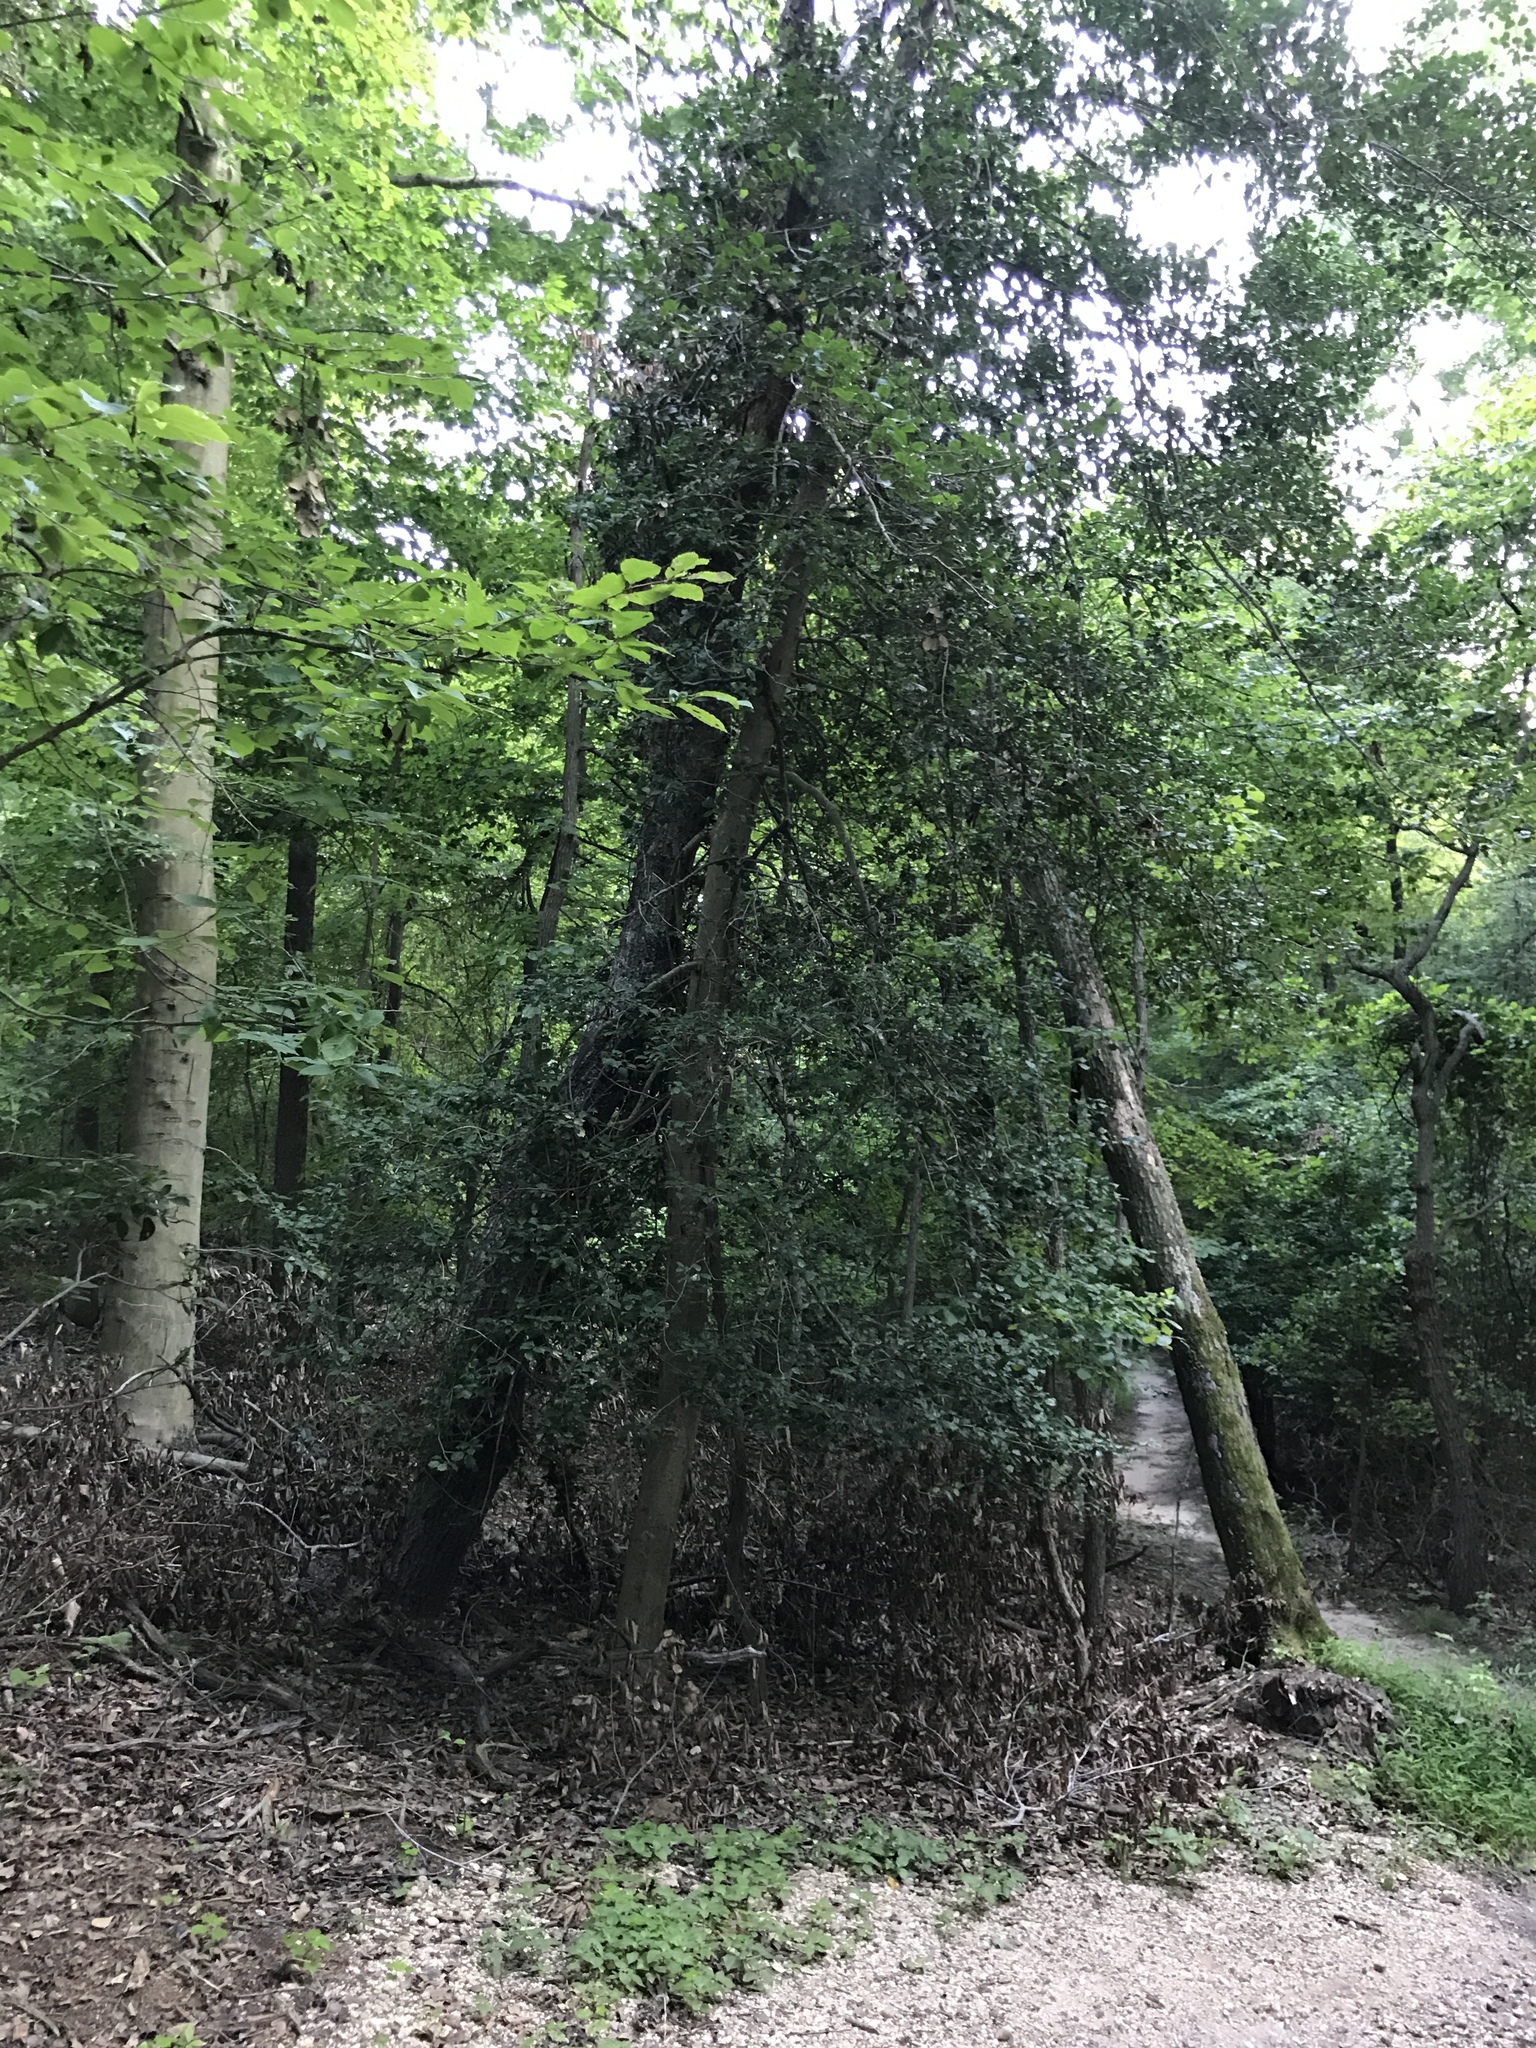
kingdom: Plantae
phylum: Tracheophyta
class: Magnoliopsida
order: Aquifoliales
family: Aquifoliaceae
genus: Ilex
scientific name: Ilex opaca
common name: American holly
